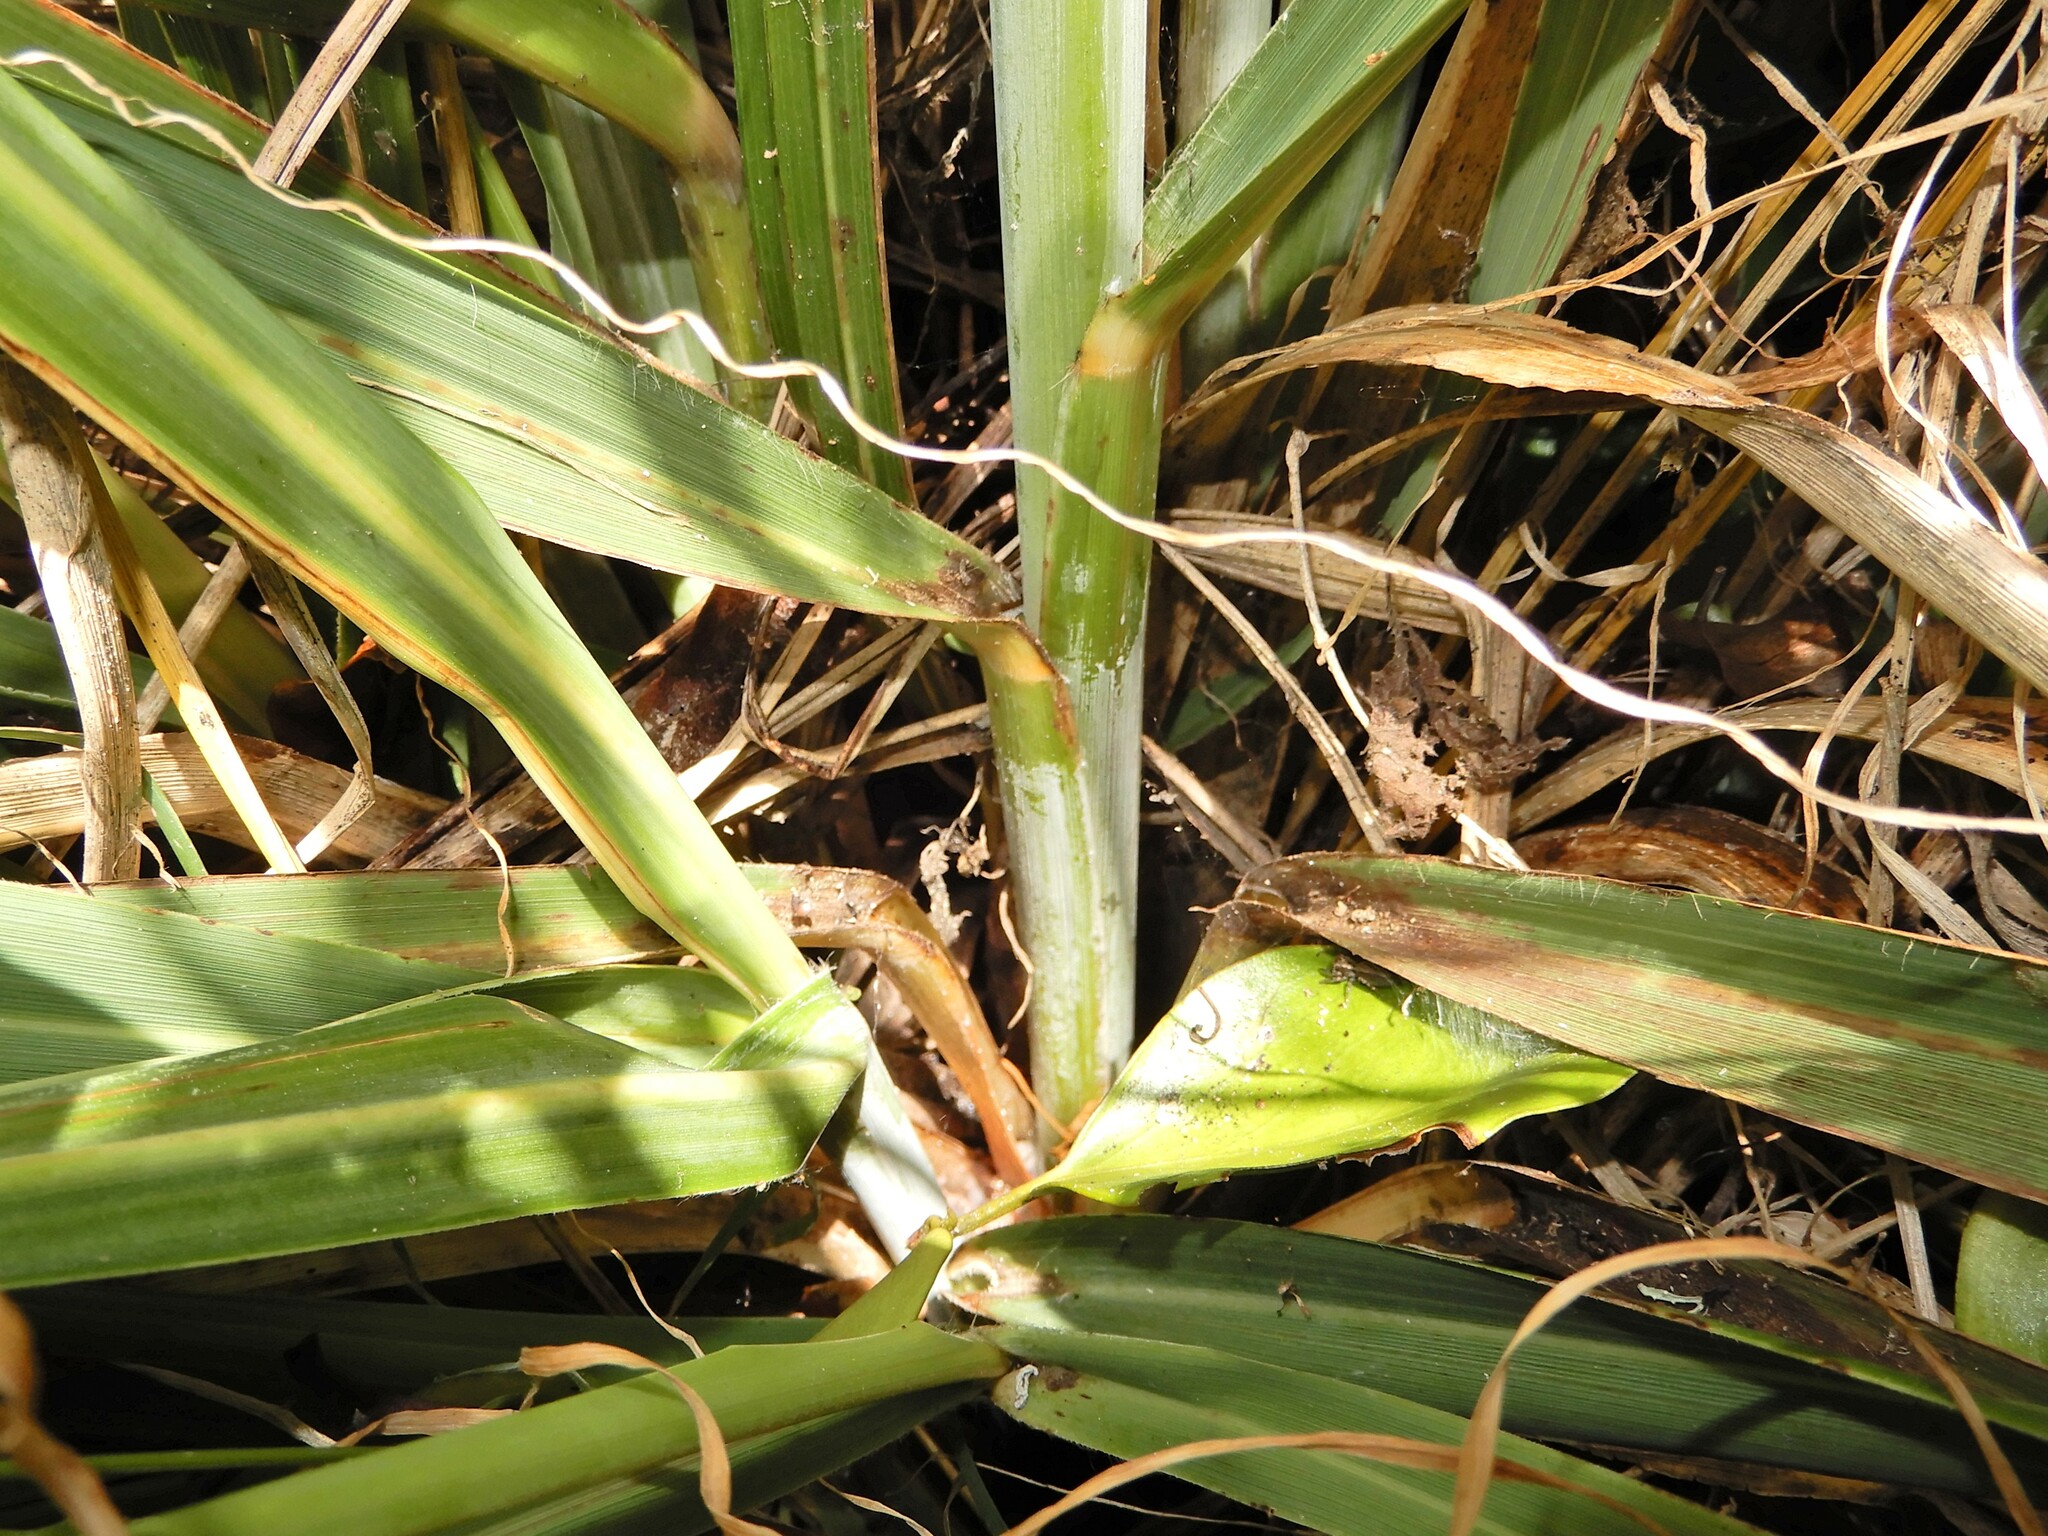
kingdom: Plantae
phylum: Tracheophyta
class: Liliopsida
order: Poales
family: Poaceae
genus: Austroderia
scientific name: Austroderia fulvida
